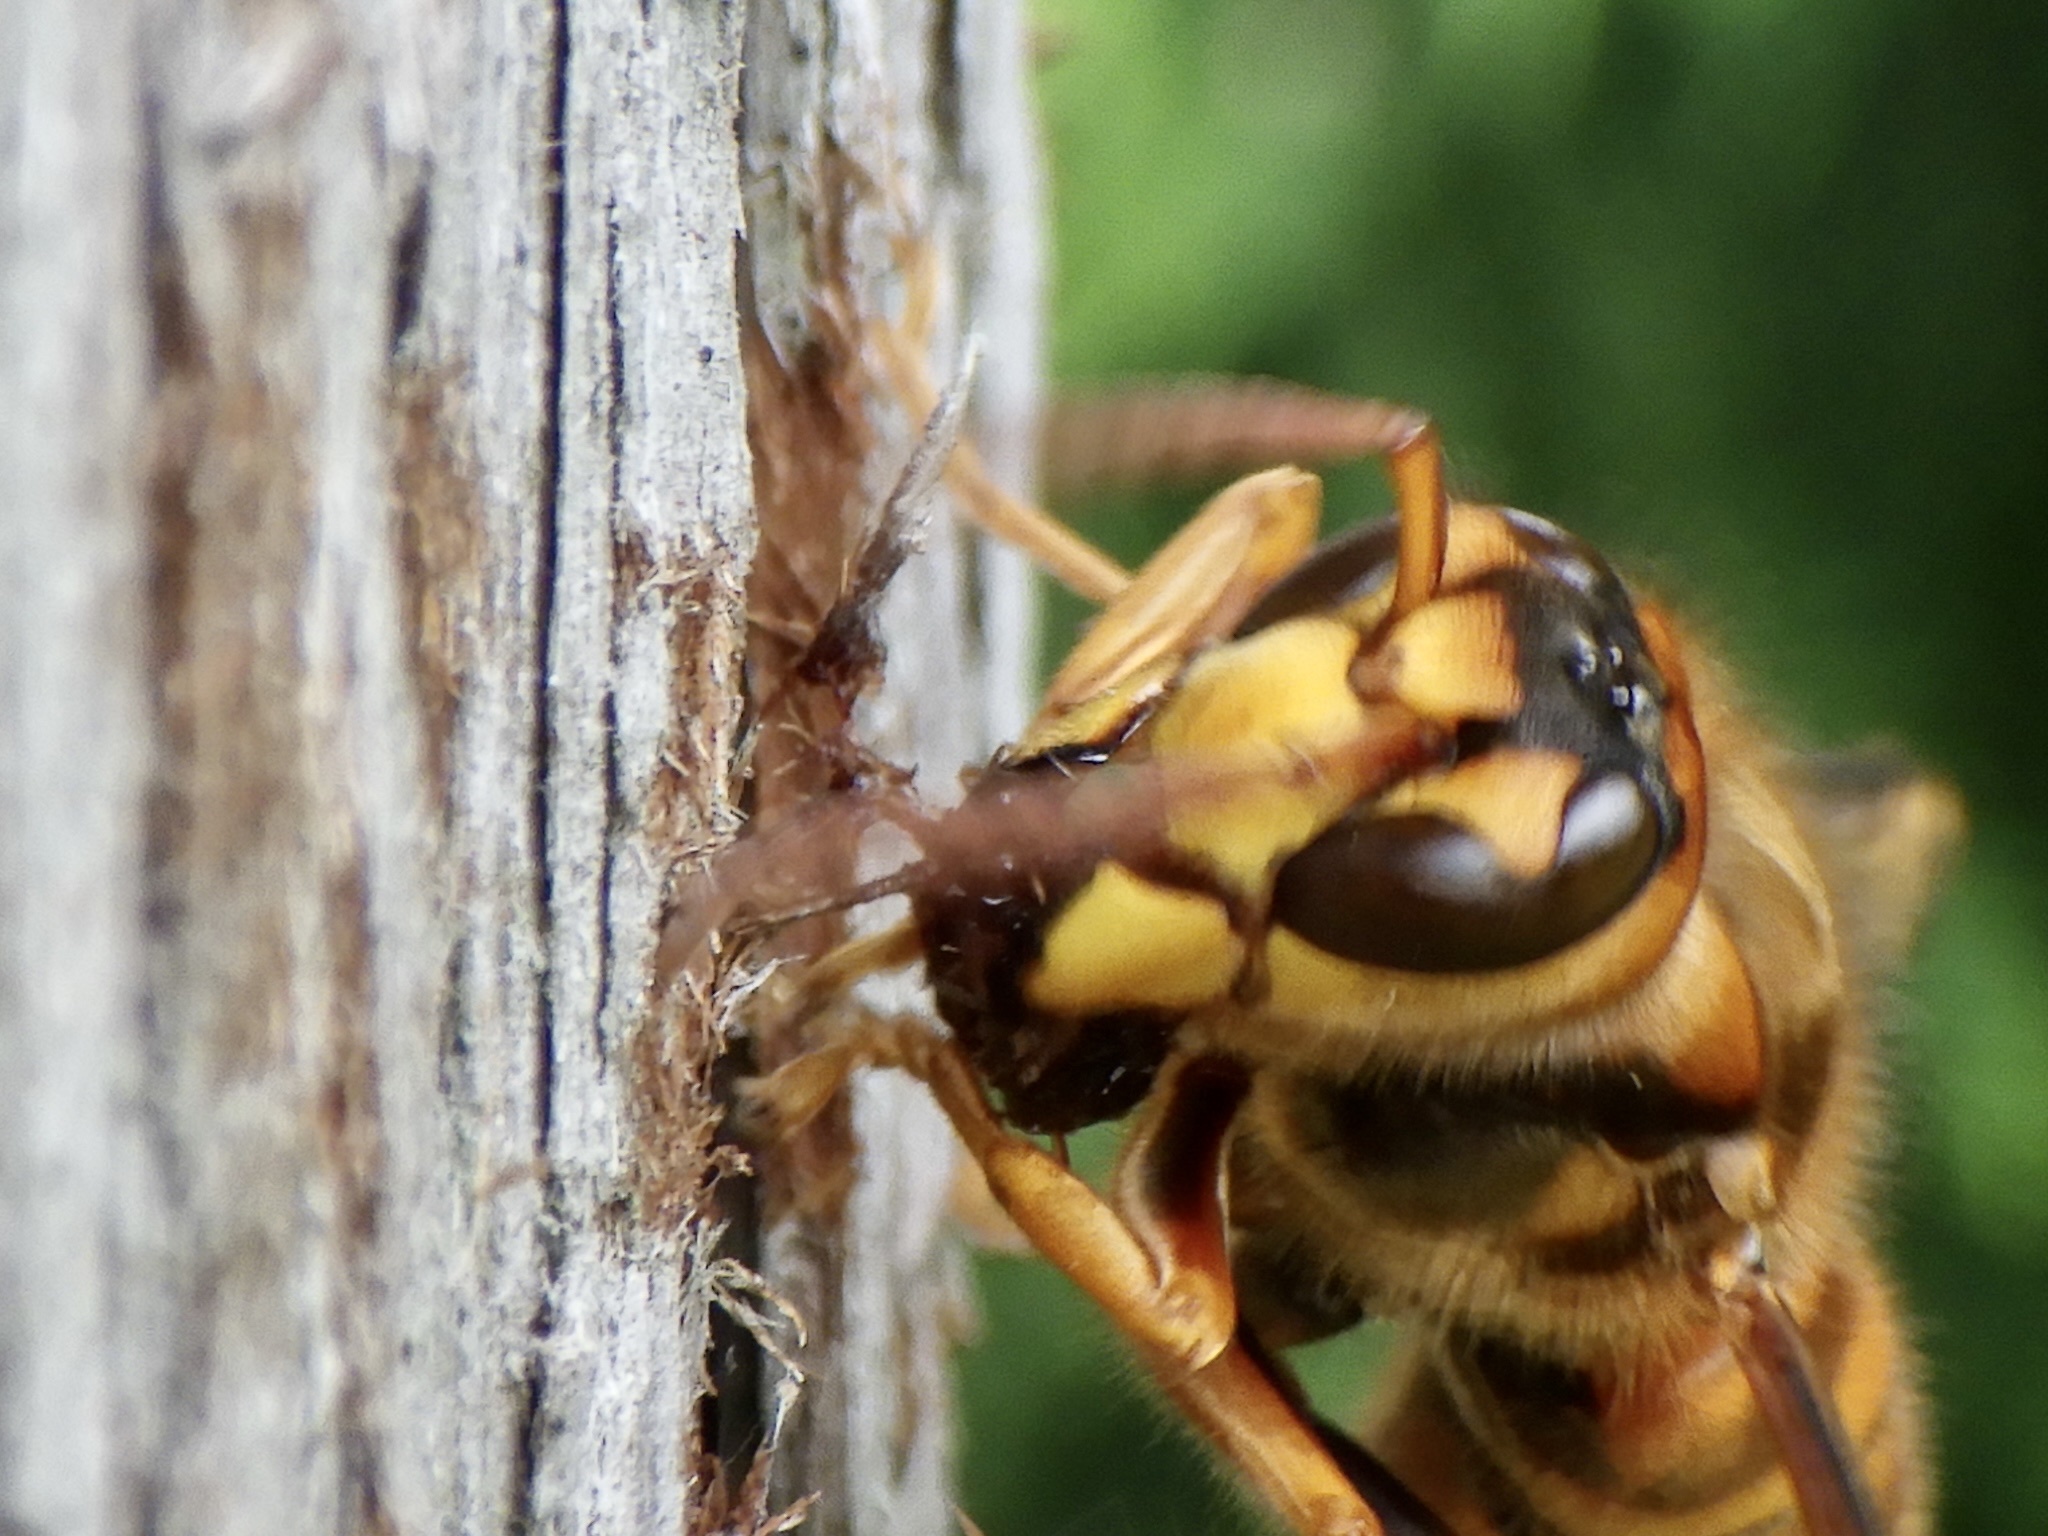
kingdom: Animalia
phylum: Arthropoda
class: Insecta
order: Hymenoptera
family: Vespidae
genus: Vespa
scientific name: Vespa simillima
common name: Vespid wasp
